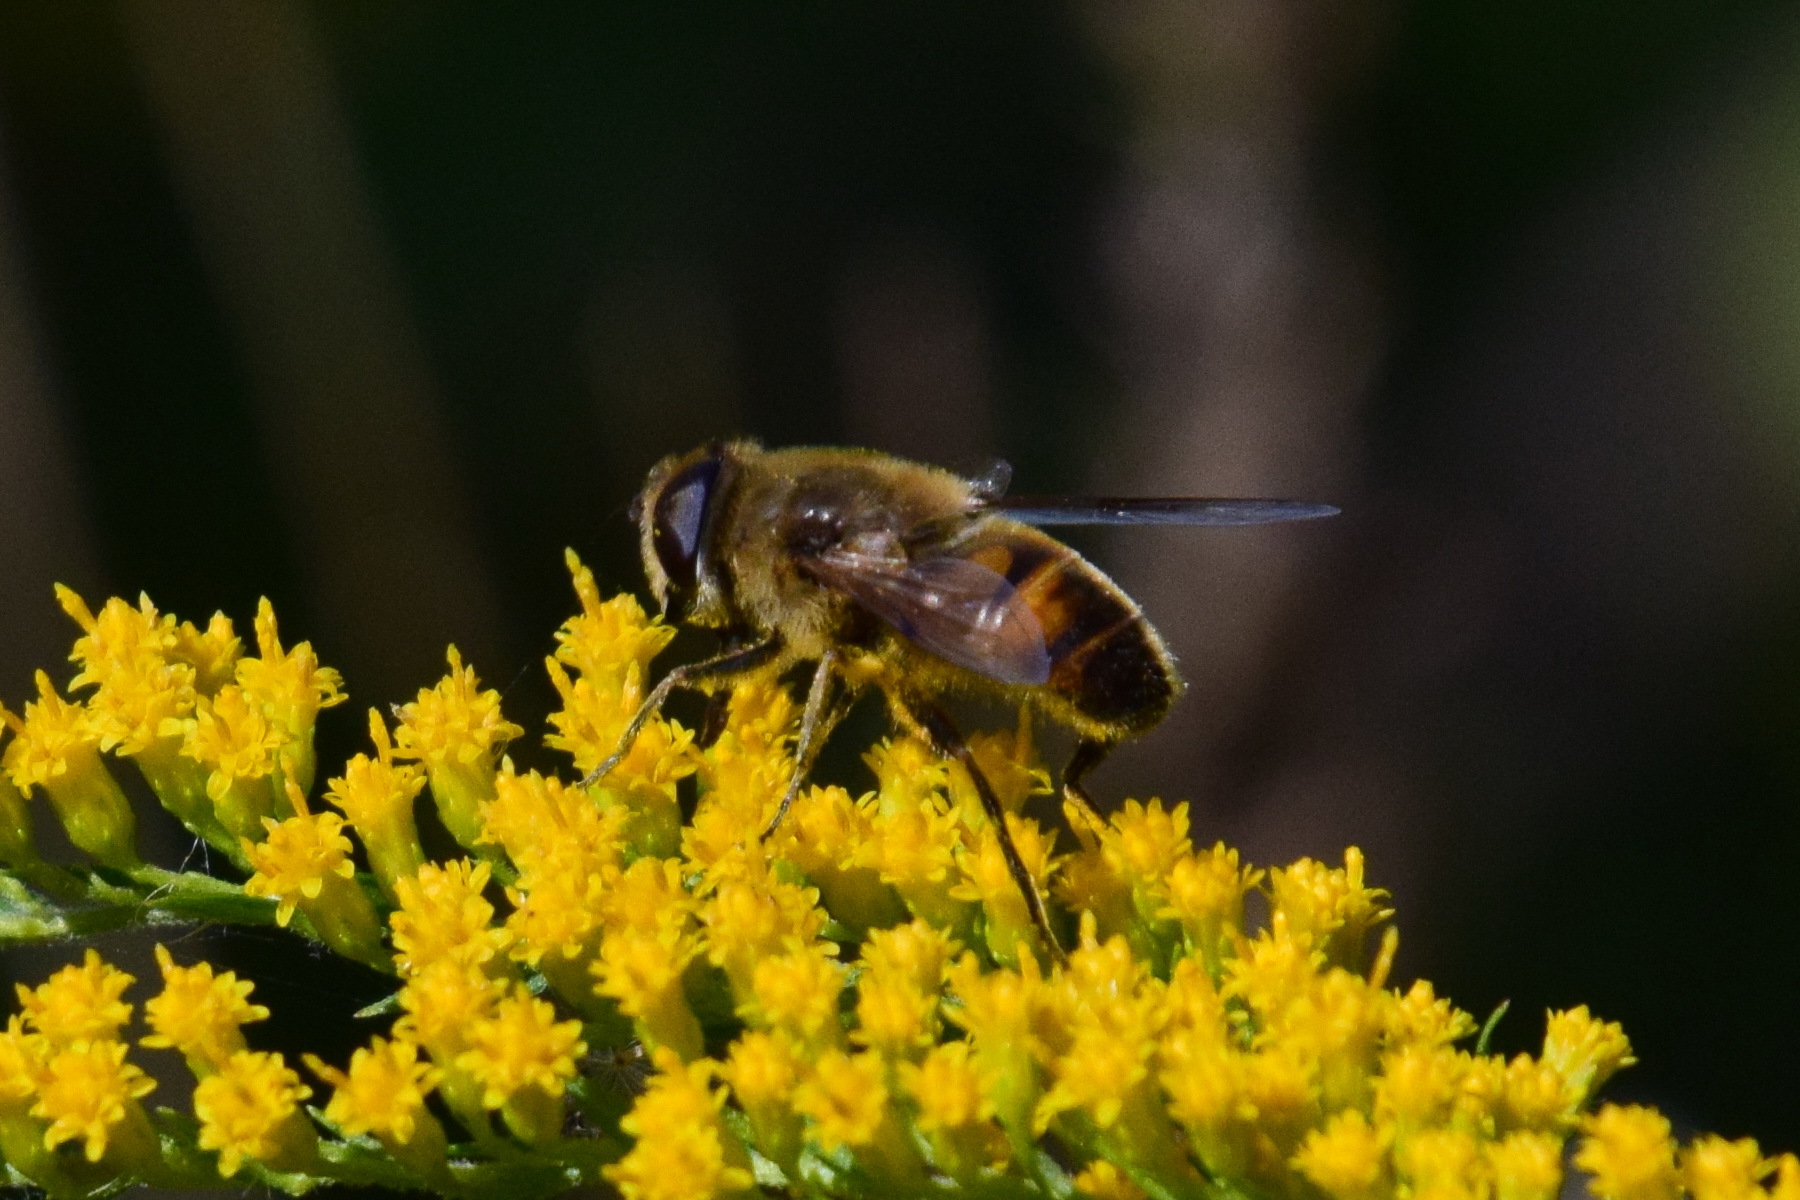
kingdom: Animalia
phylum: Arthropoda
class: Insecta
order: Diptera
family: Syrphidae
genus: Eristalis
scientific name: Eristalis tenax
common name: Drone fly
